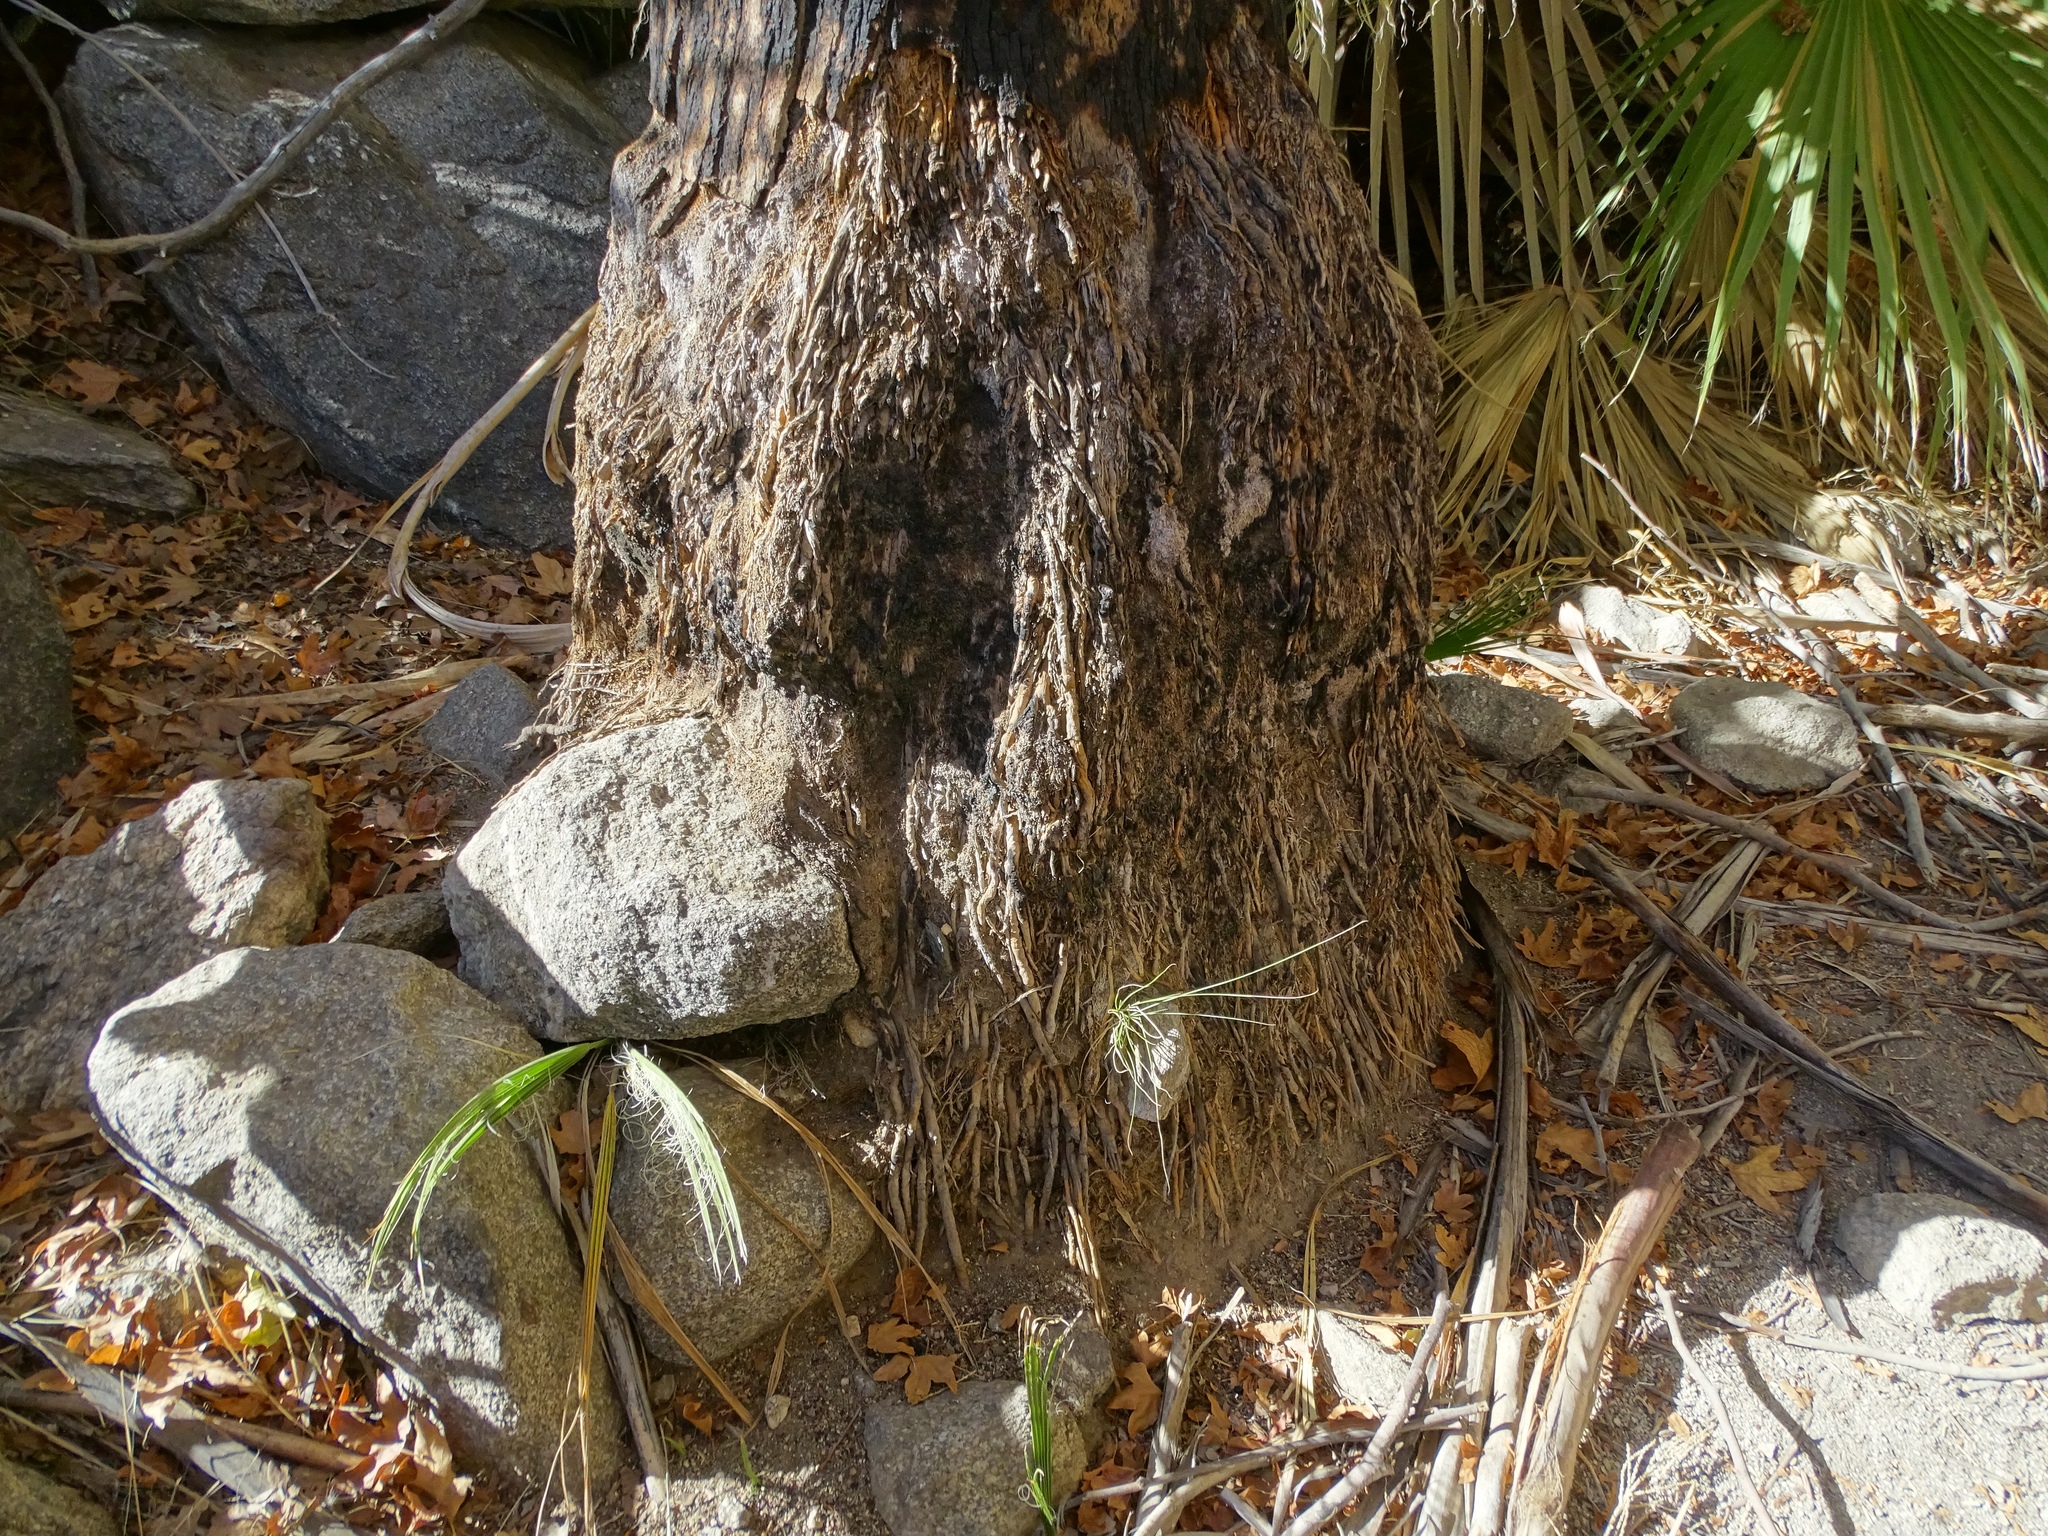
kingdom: Plantae
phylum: Tracheophyta
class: Liliopsida
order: Arecales
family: Arecaceae
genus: Washingtonia
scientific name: Washingtonia filifera
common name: California fan palm
